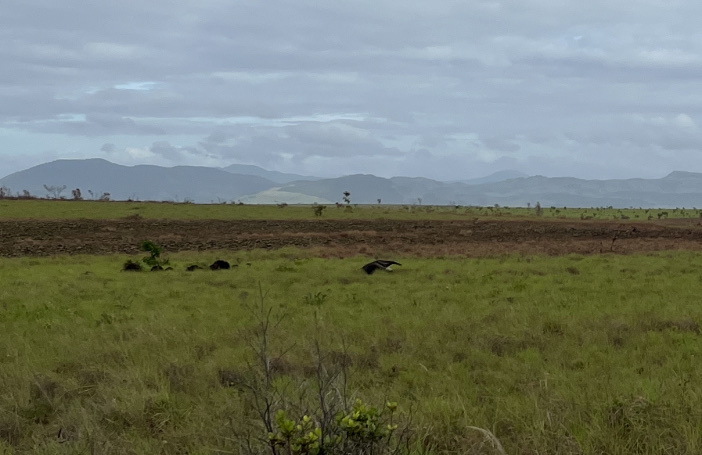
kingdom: Animalia
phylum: Chordata
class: Mammalia
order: Pilosa
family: Myrmecophagidae
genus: Myrmecophaga
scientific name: Myrmecophaga tridactyla
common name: Giant anteater
